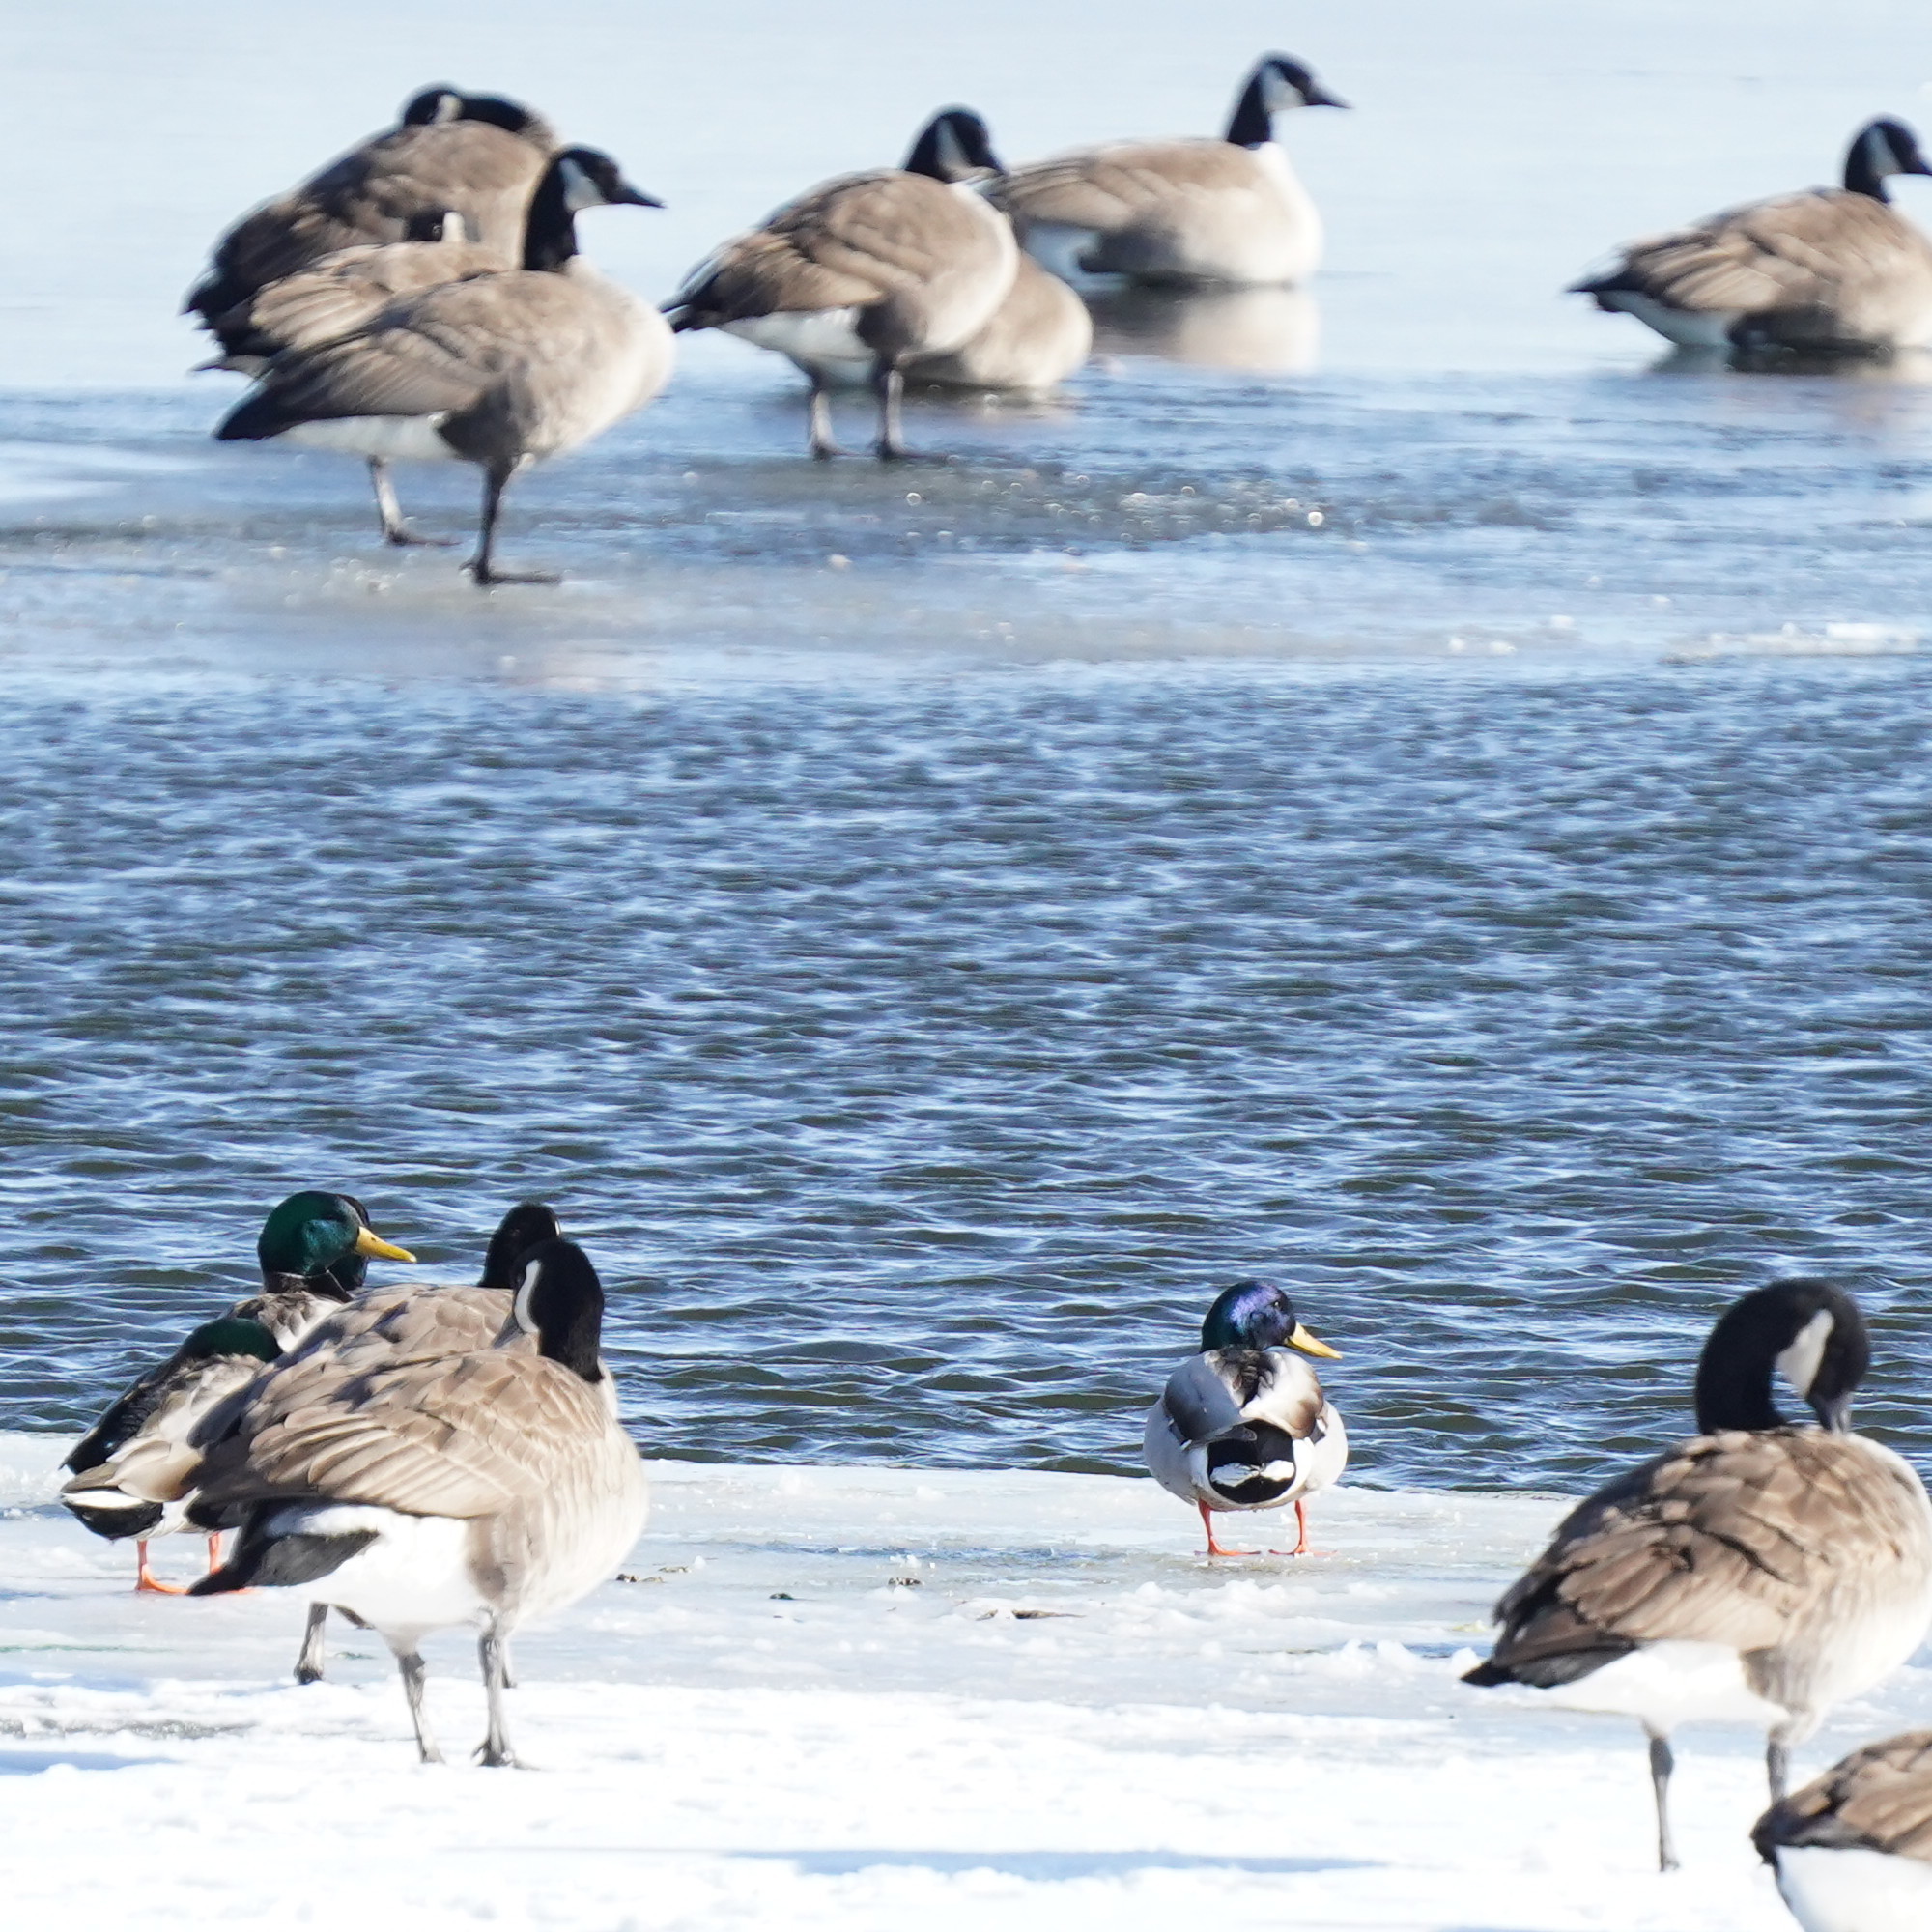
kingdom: Animalia
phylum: Chordata
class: Aves
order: Anseriformes
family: Anatidae
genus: Anas
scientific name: Anas platyrhynchos
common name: Mallard
